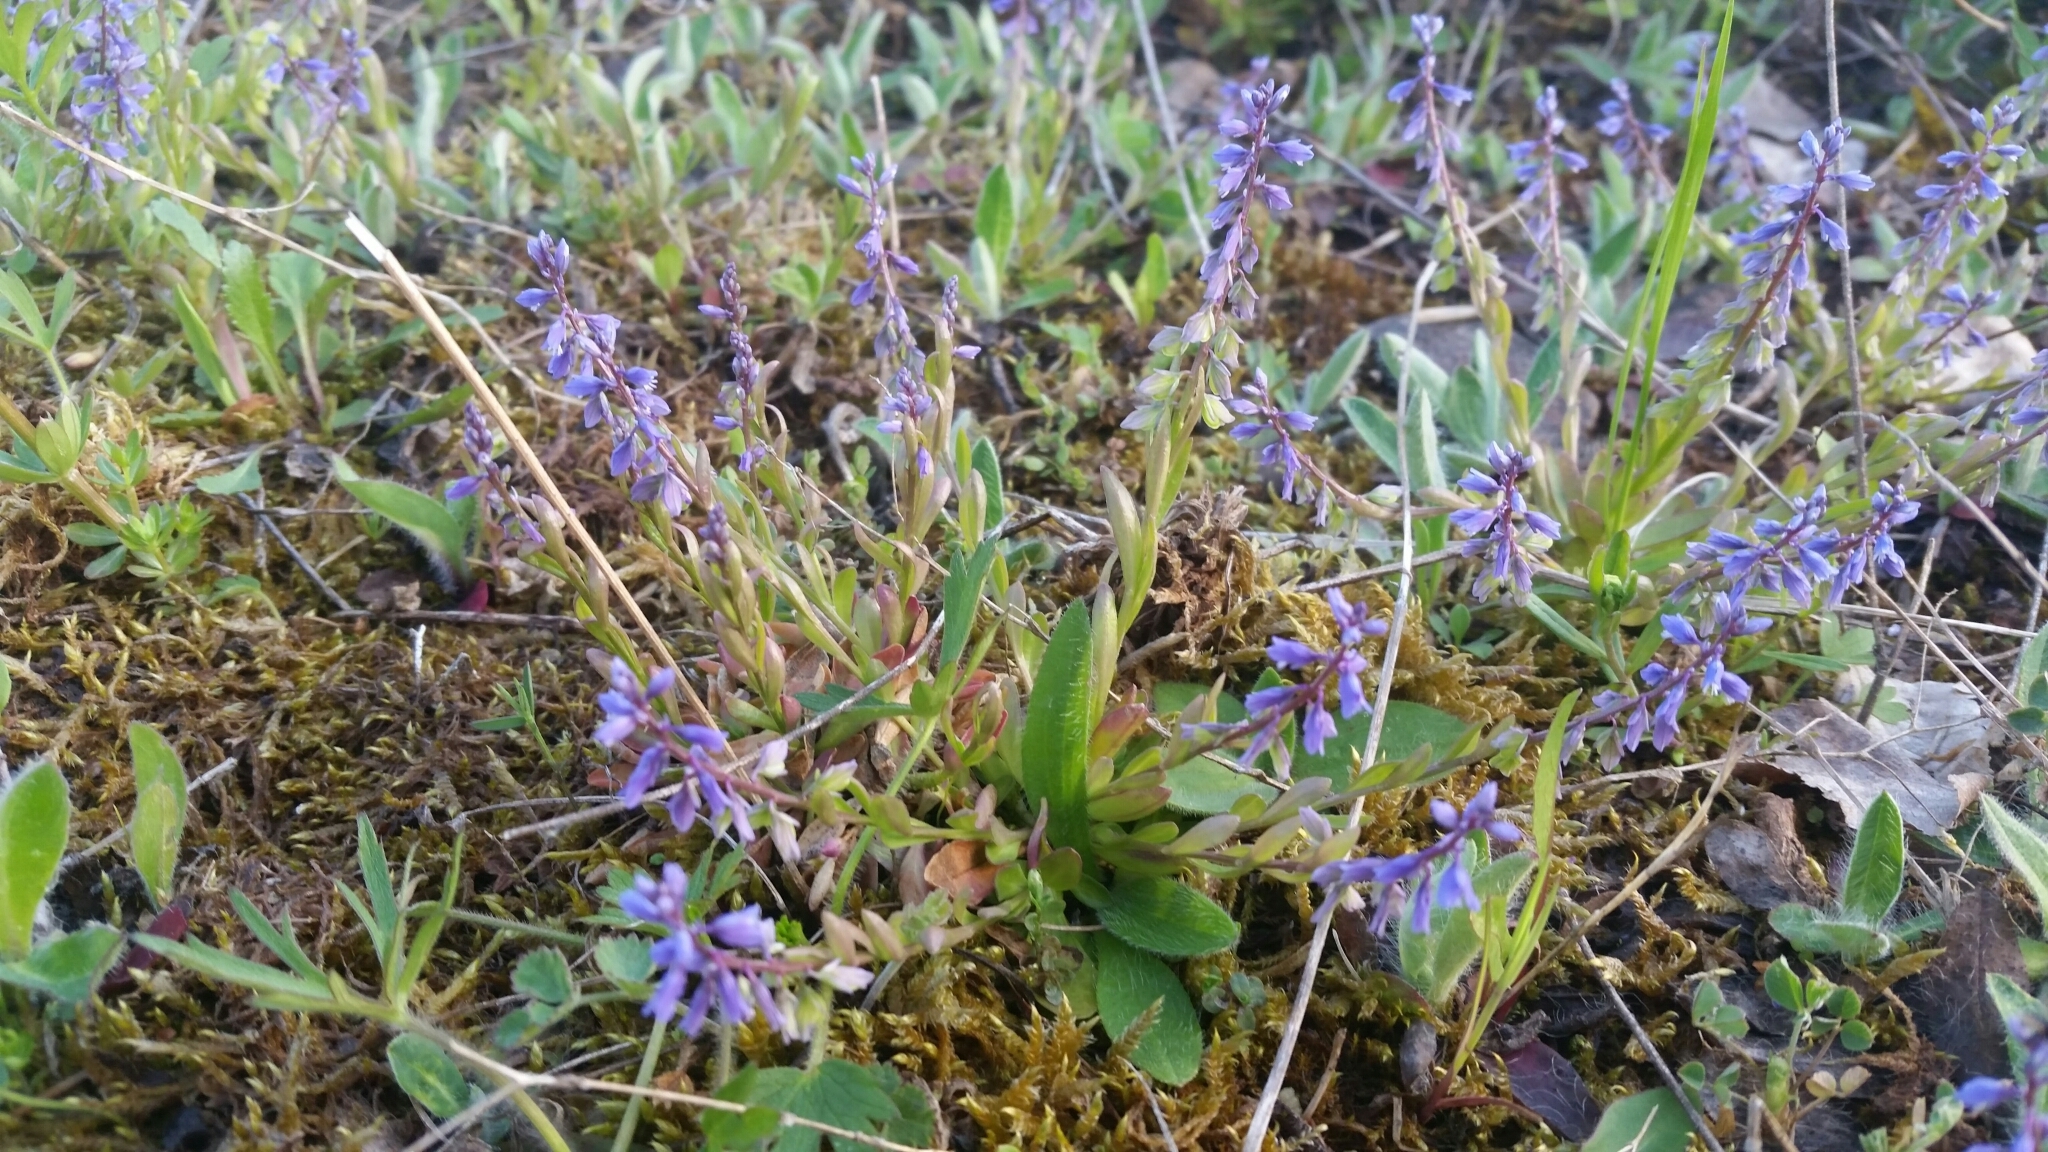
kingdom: Plantae
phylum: Tracheophyta
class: Magnoliopsida
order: Fabales
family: Polygalaceae
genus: Polygala
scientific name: Polygala amarella
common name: Dwarf milkwort
